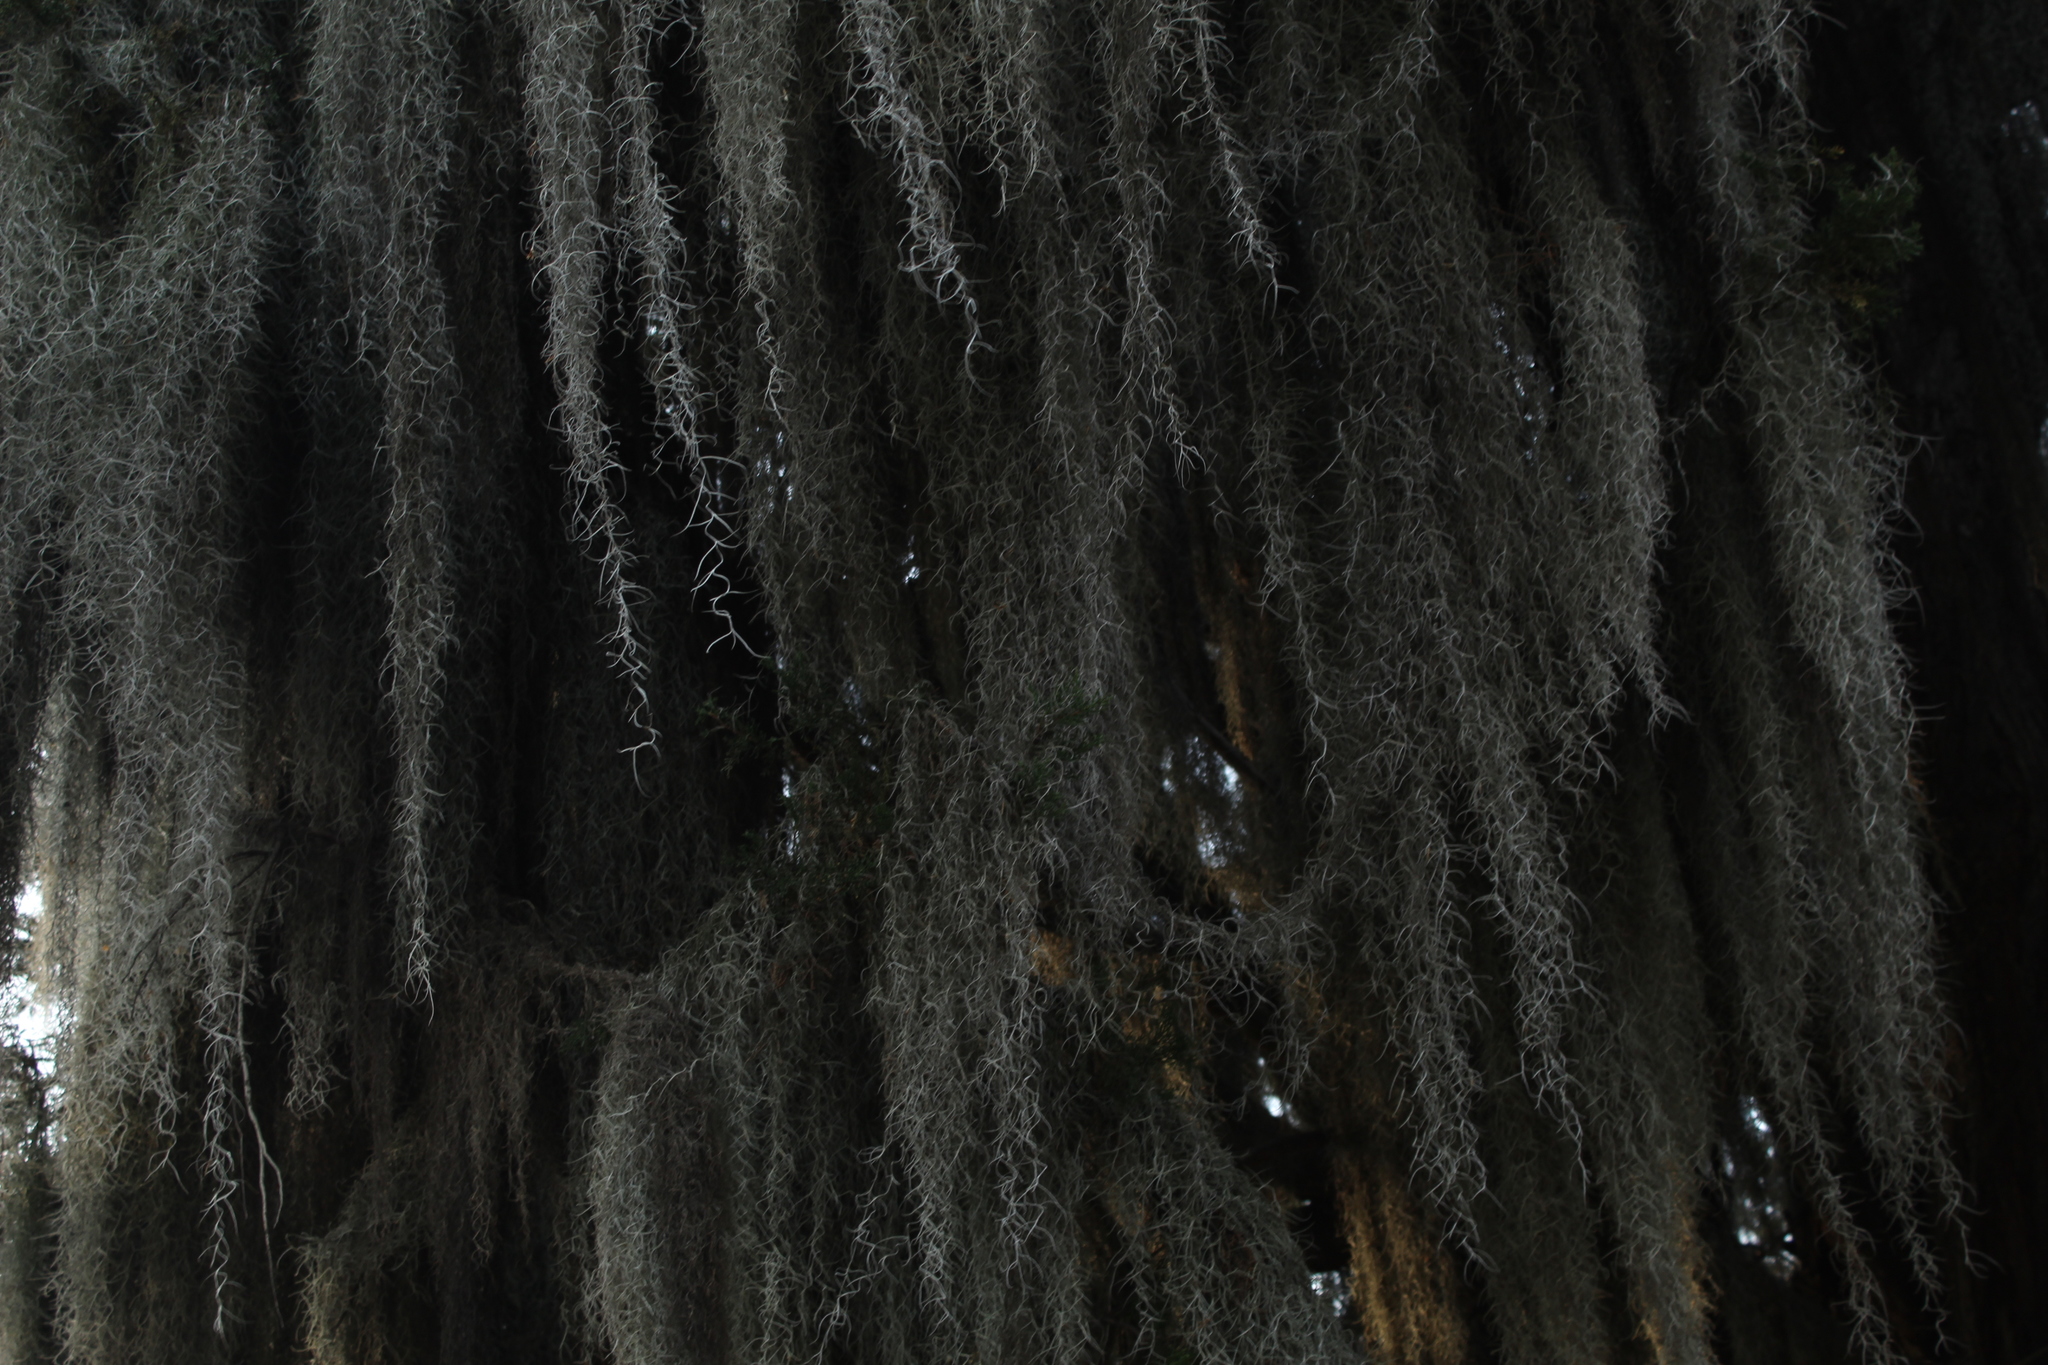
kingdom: Plantae
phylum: Tracheophyta
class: Liliopsida
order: Poales
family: Bromeliaceae
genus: Tillandsia
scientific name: Tillandsia usneoides
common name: Spanish moss
